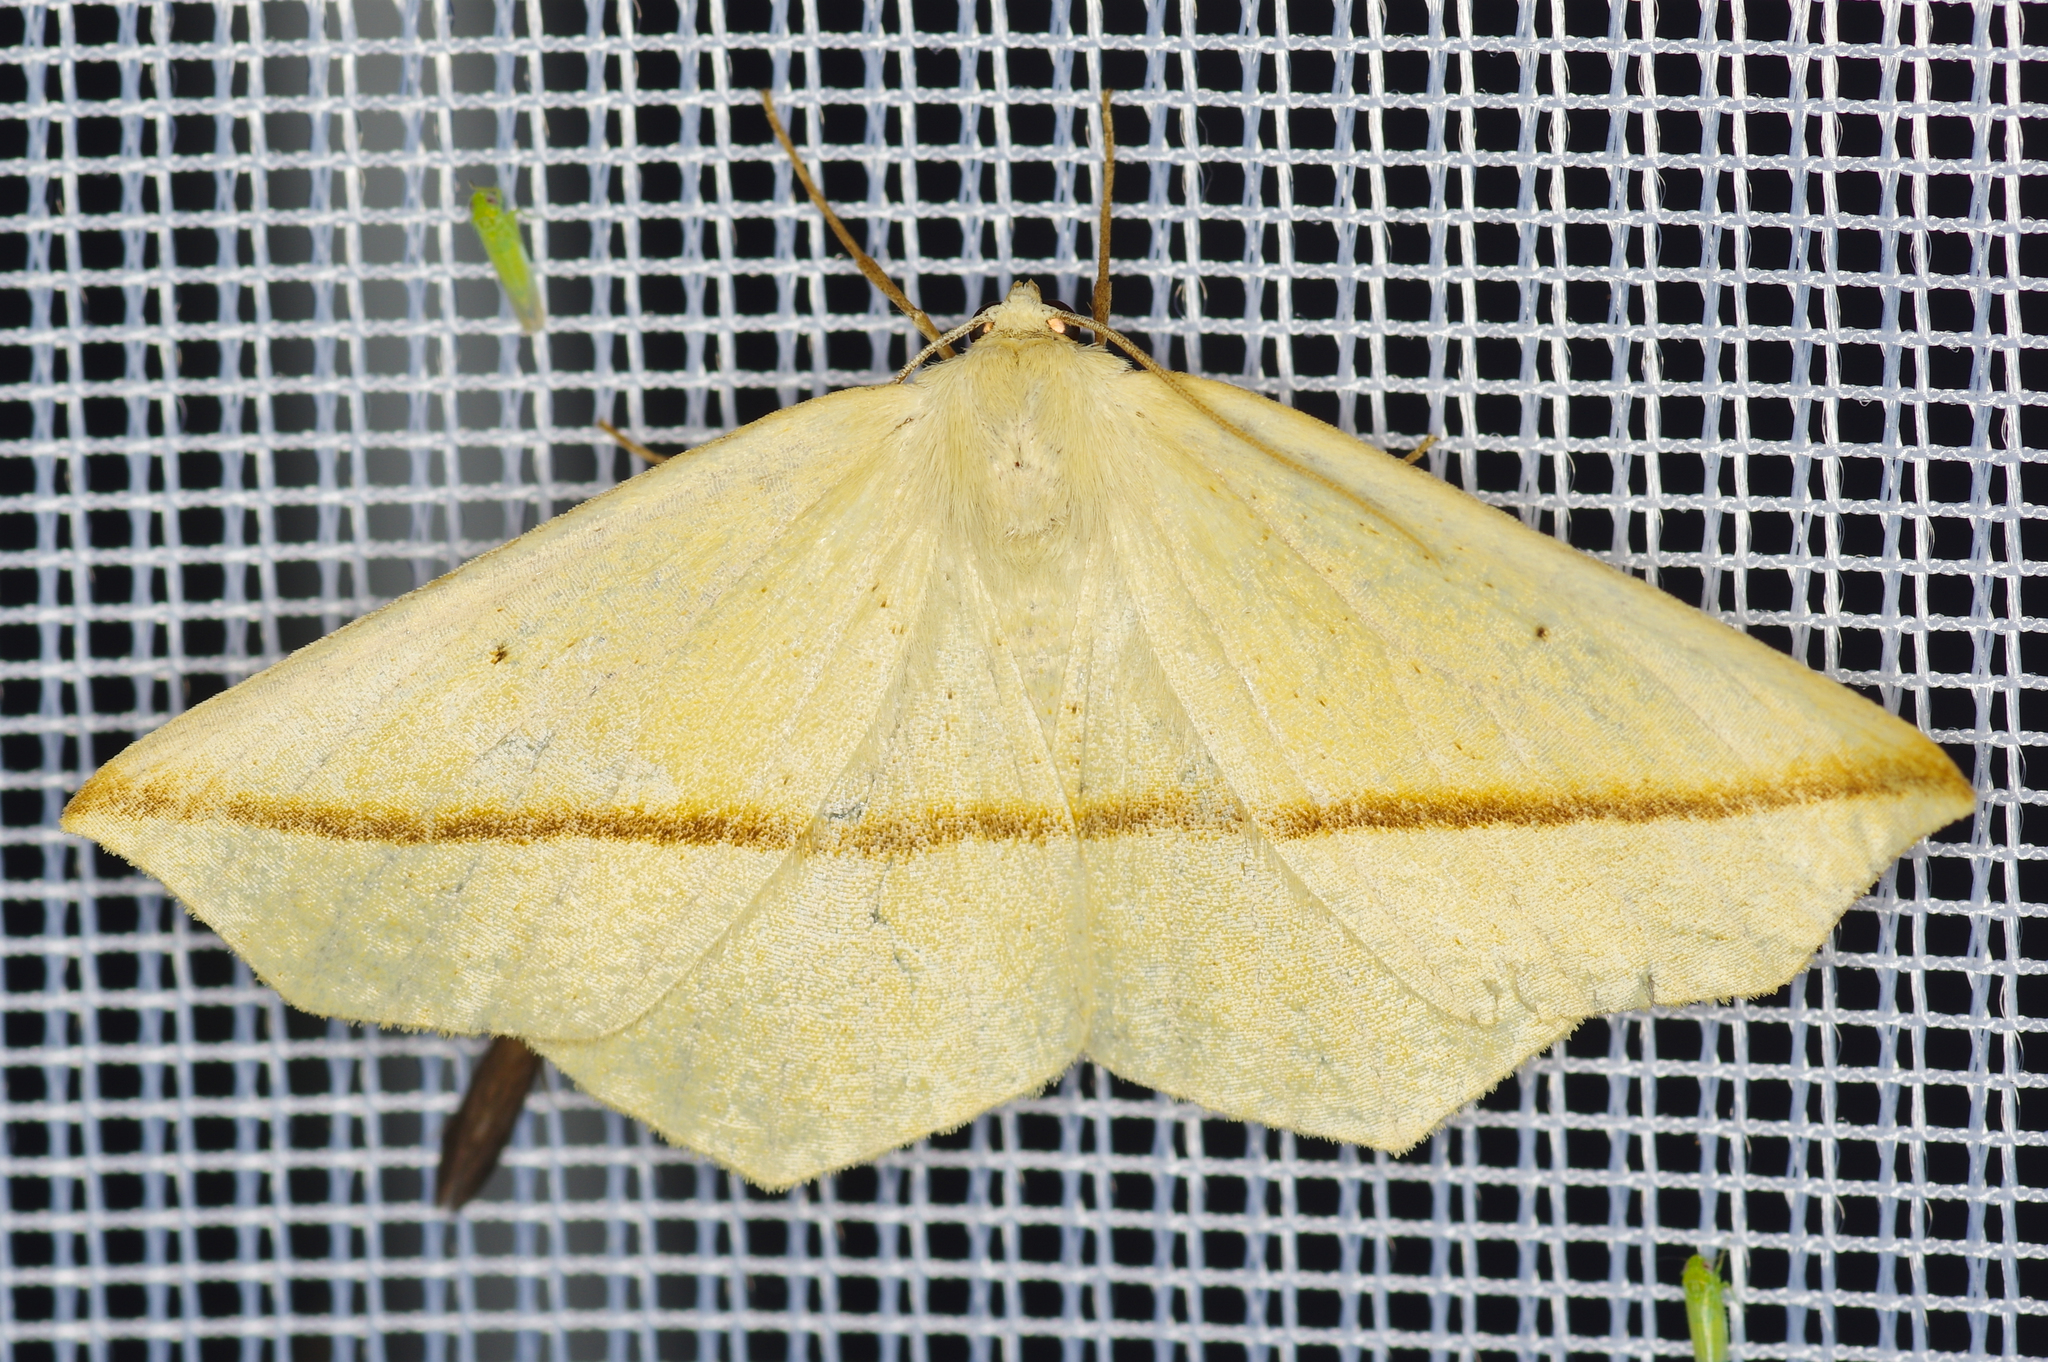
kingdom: Animalia
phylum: Arthropoda
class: Insecta
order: Lepidoptera
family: Geometridae
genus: Tetracis
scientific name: Tetracis crocallata
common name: Yellow slant-line
